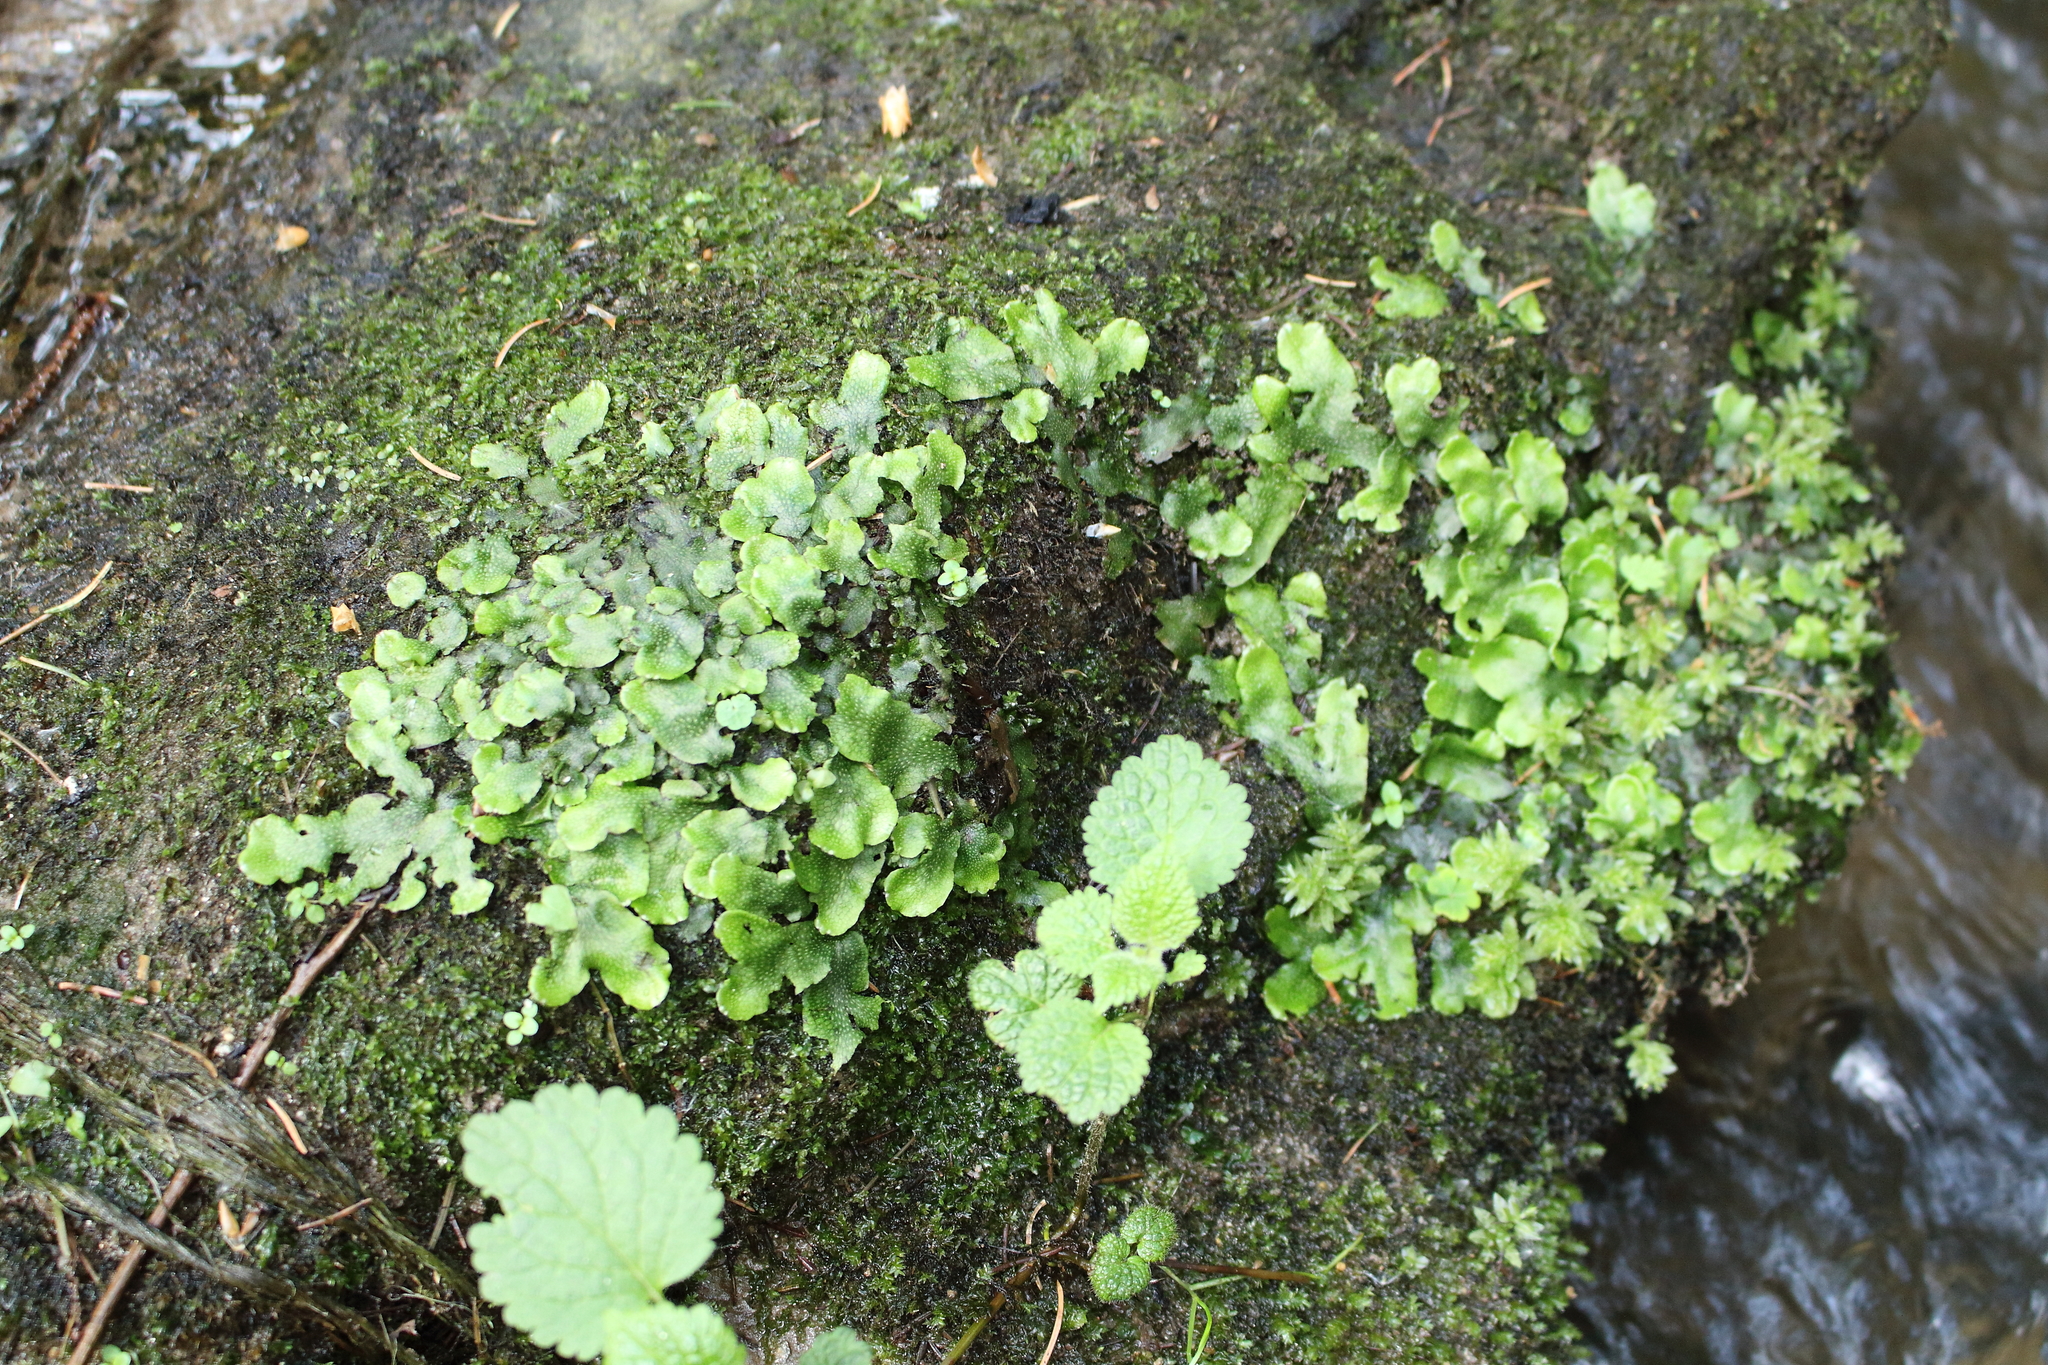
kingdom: Plantae
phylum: Marchantiophyta
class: Marchantiopsida
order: Marchantiales
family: Conocephalaceae
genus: Conocephalum
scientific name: Conocephalum conicum
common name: Great scented liverwort
